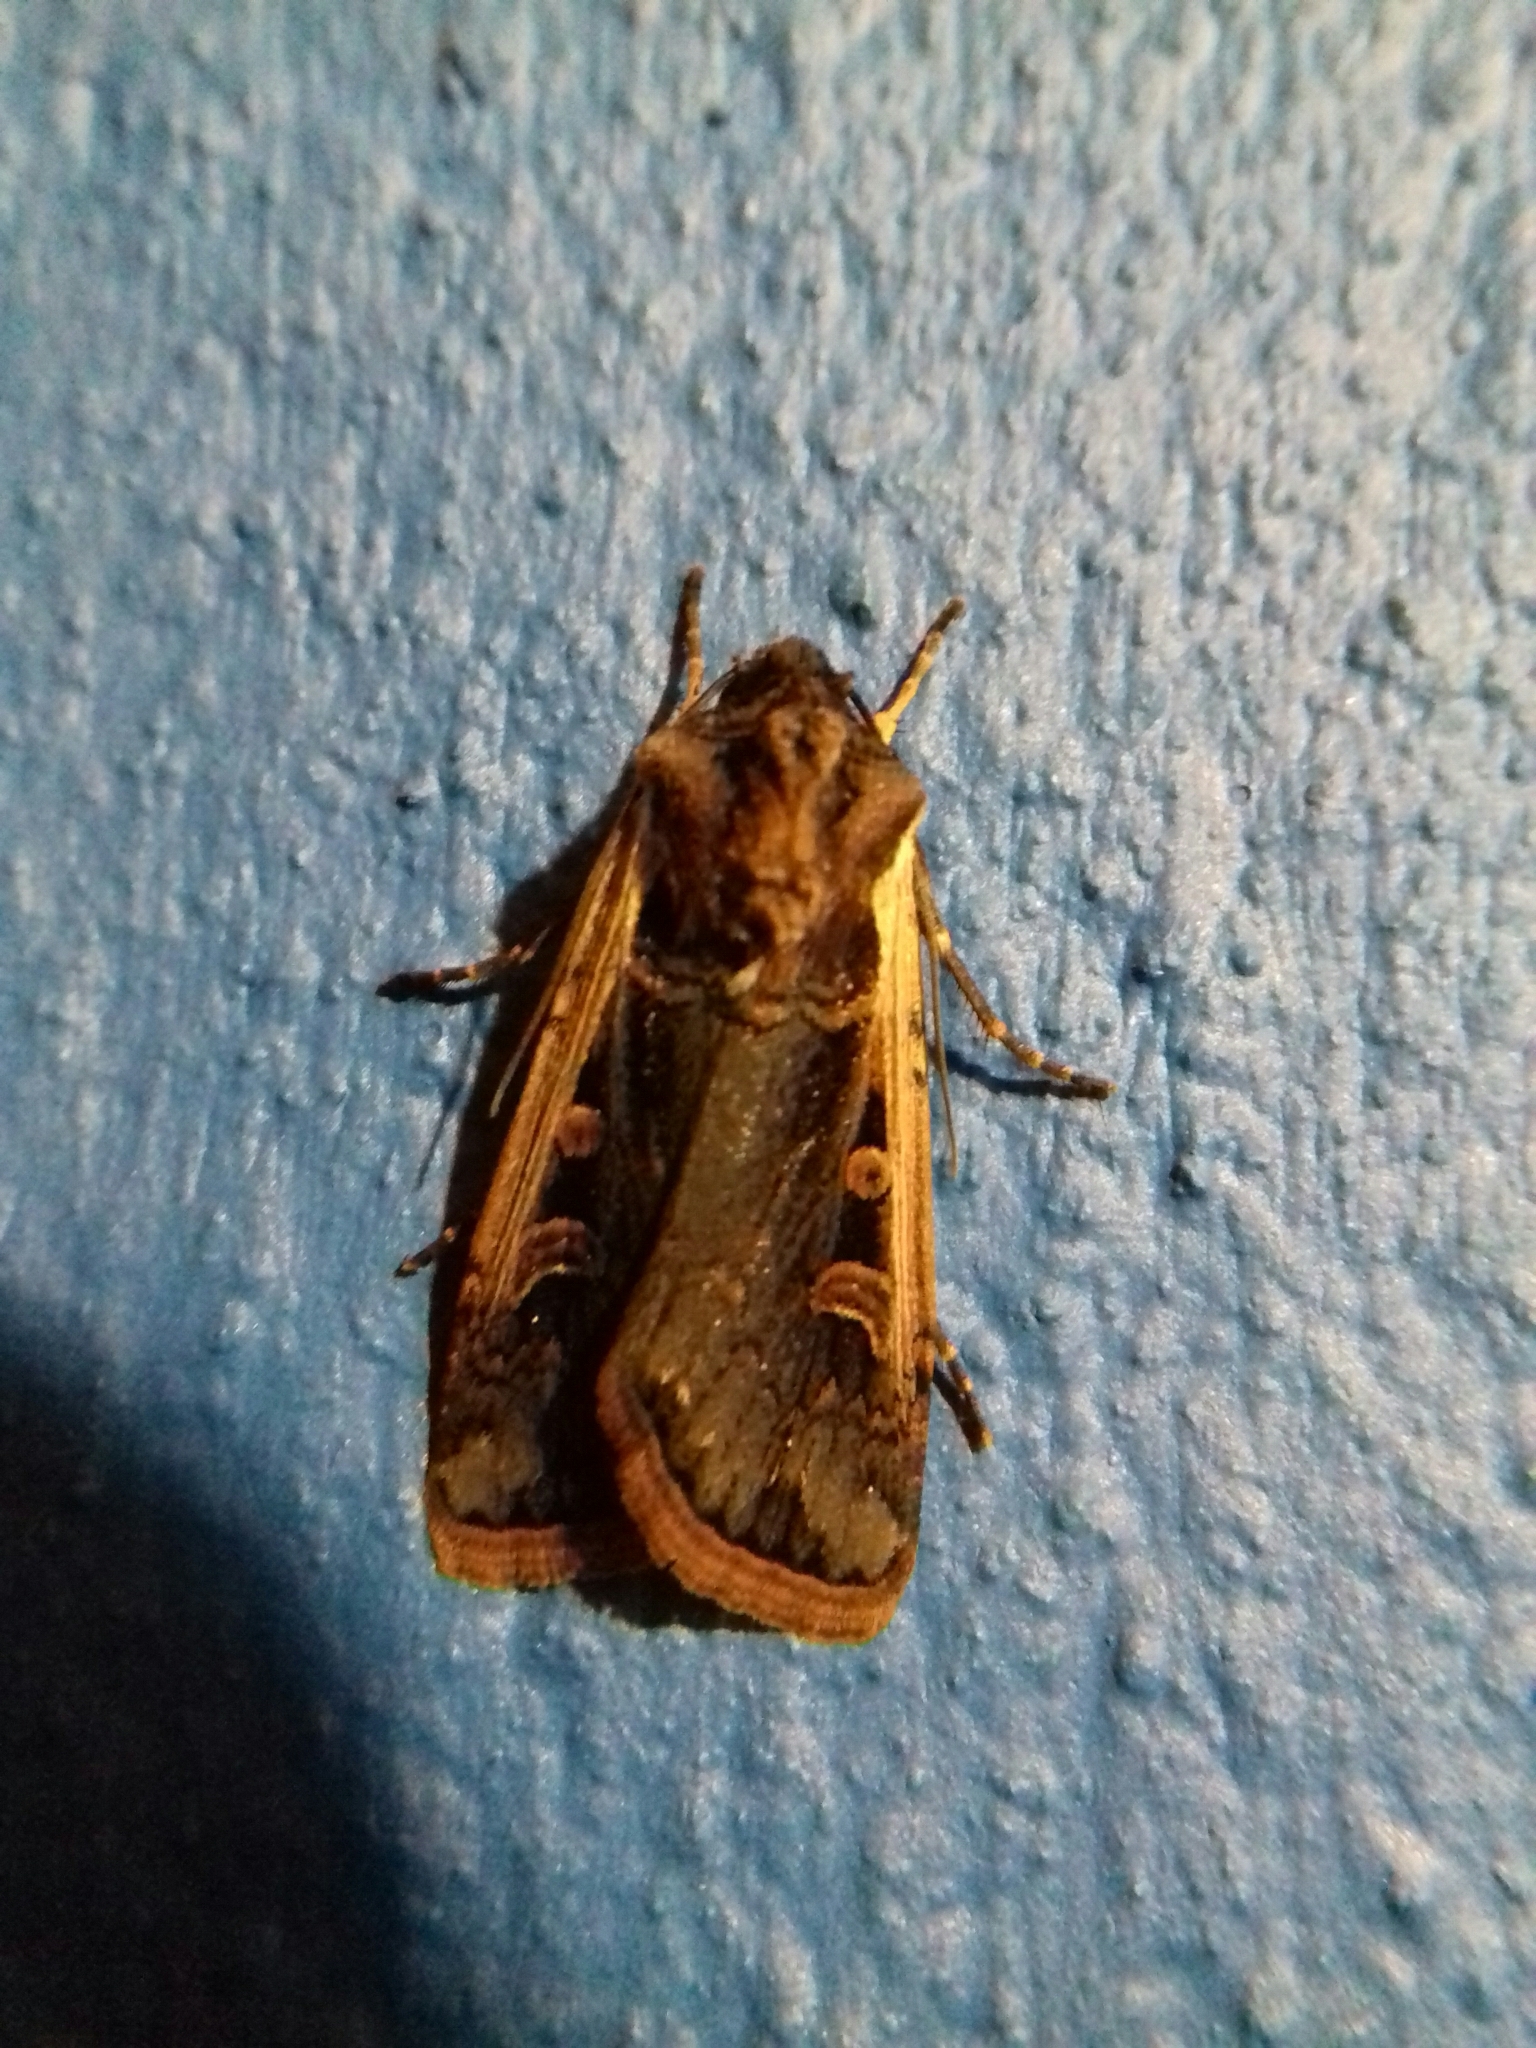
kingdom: Animalia
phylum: Arthropoda
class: Insecta
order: Lepidoptera
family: Noctuidae
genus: Striacosta
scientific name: Striacosta albicosta
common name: Western bean cutworm moth
